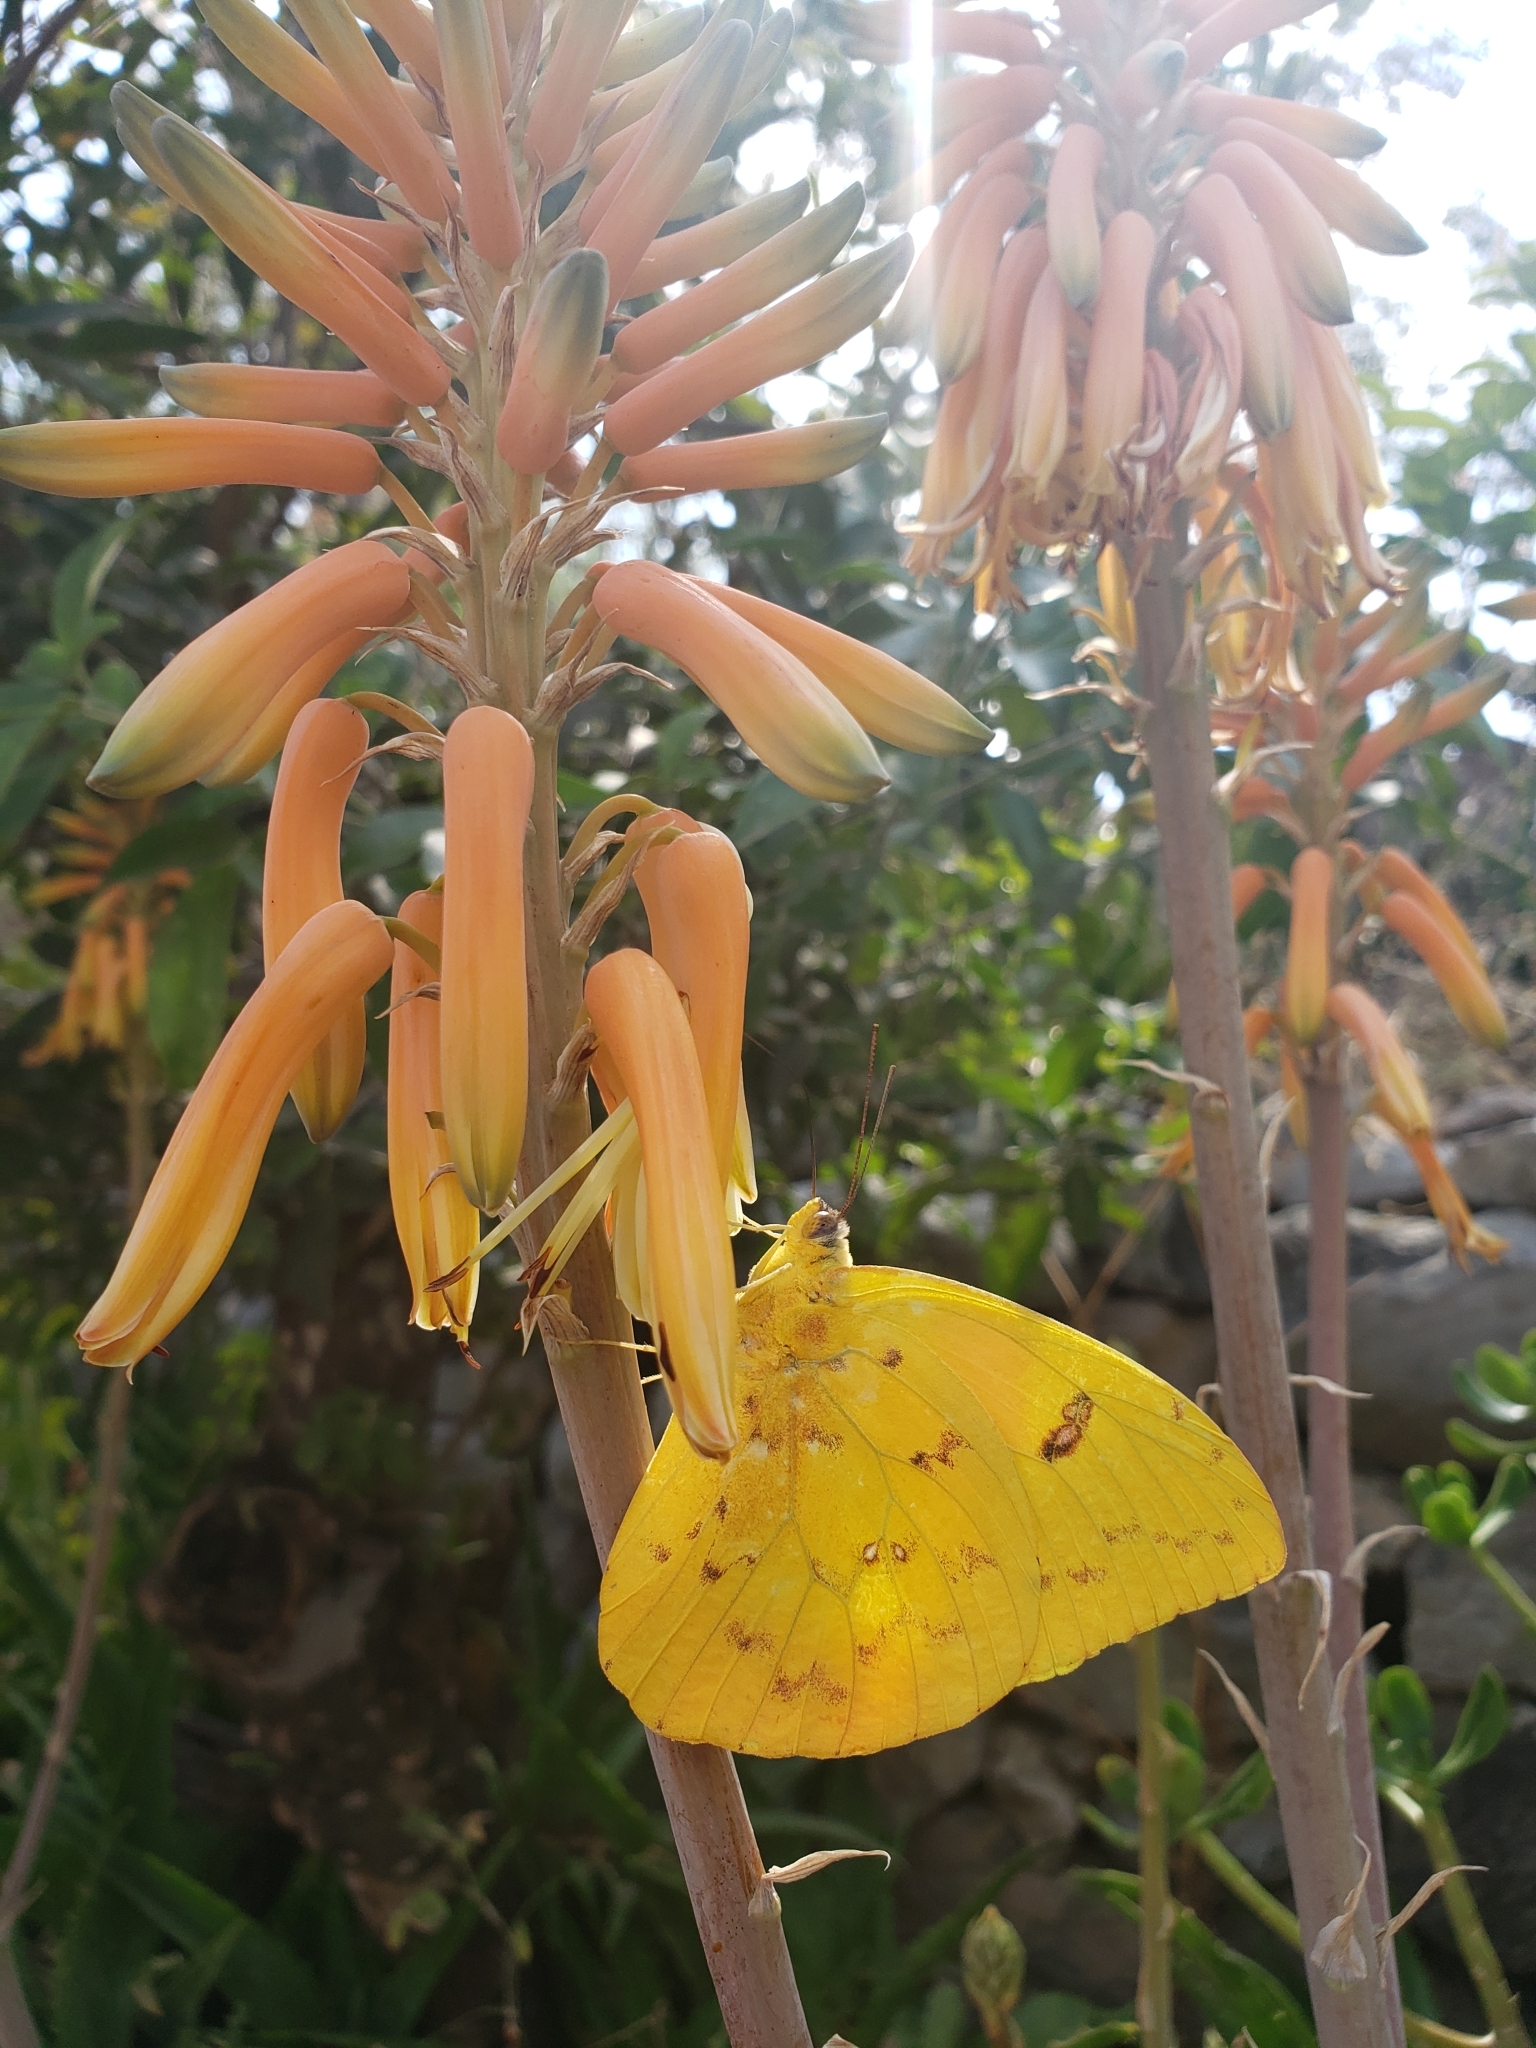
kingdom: Animalia
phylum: Arthropoda
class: Insecta
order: Lepidoptera
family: Pieridae
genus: Phoebis
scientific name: Phoebis philea
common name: Orange-barred giant sulphur
